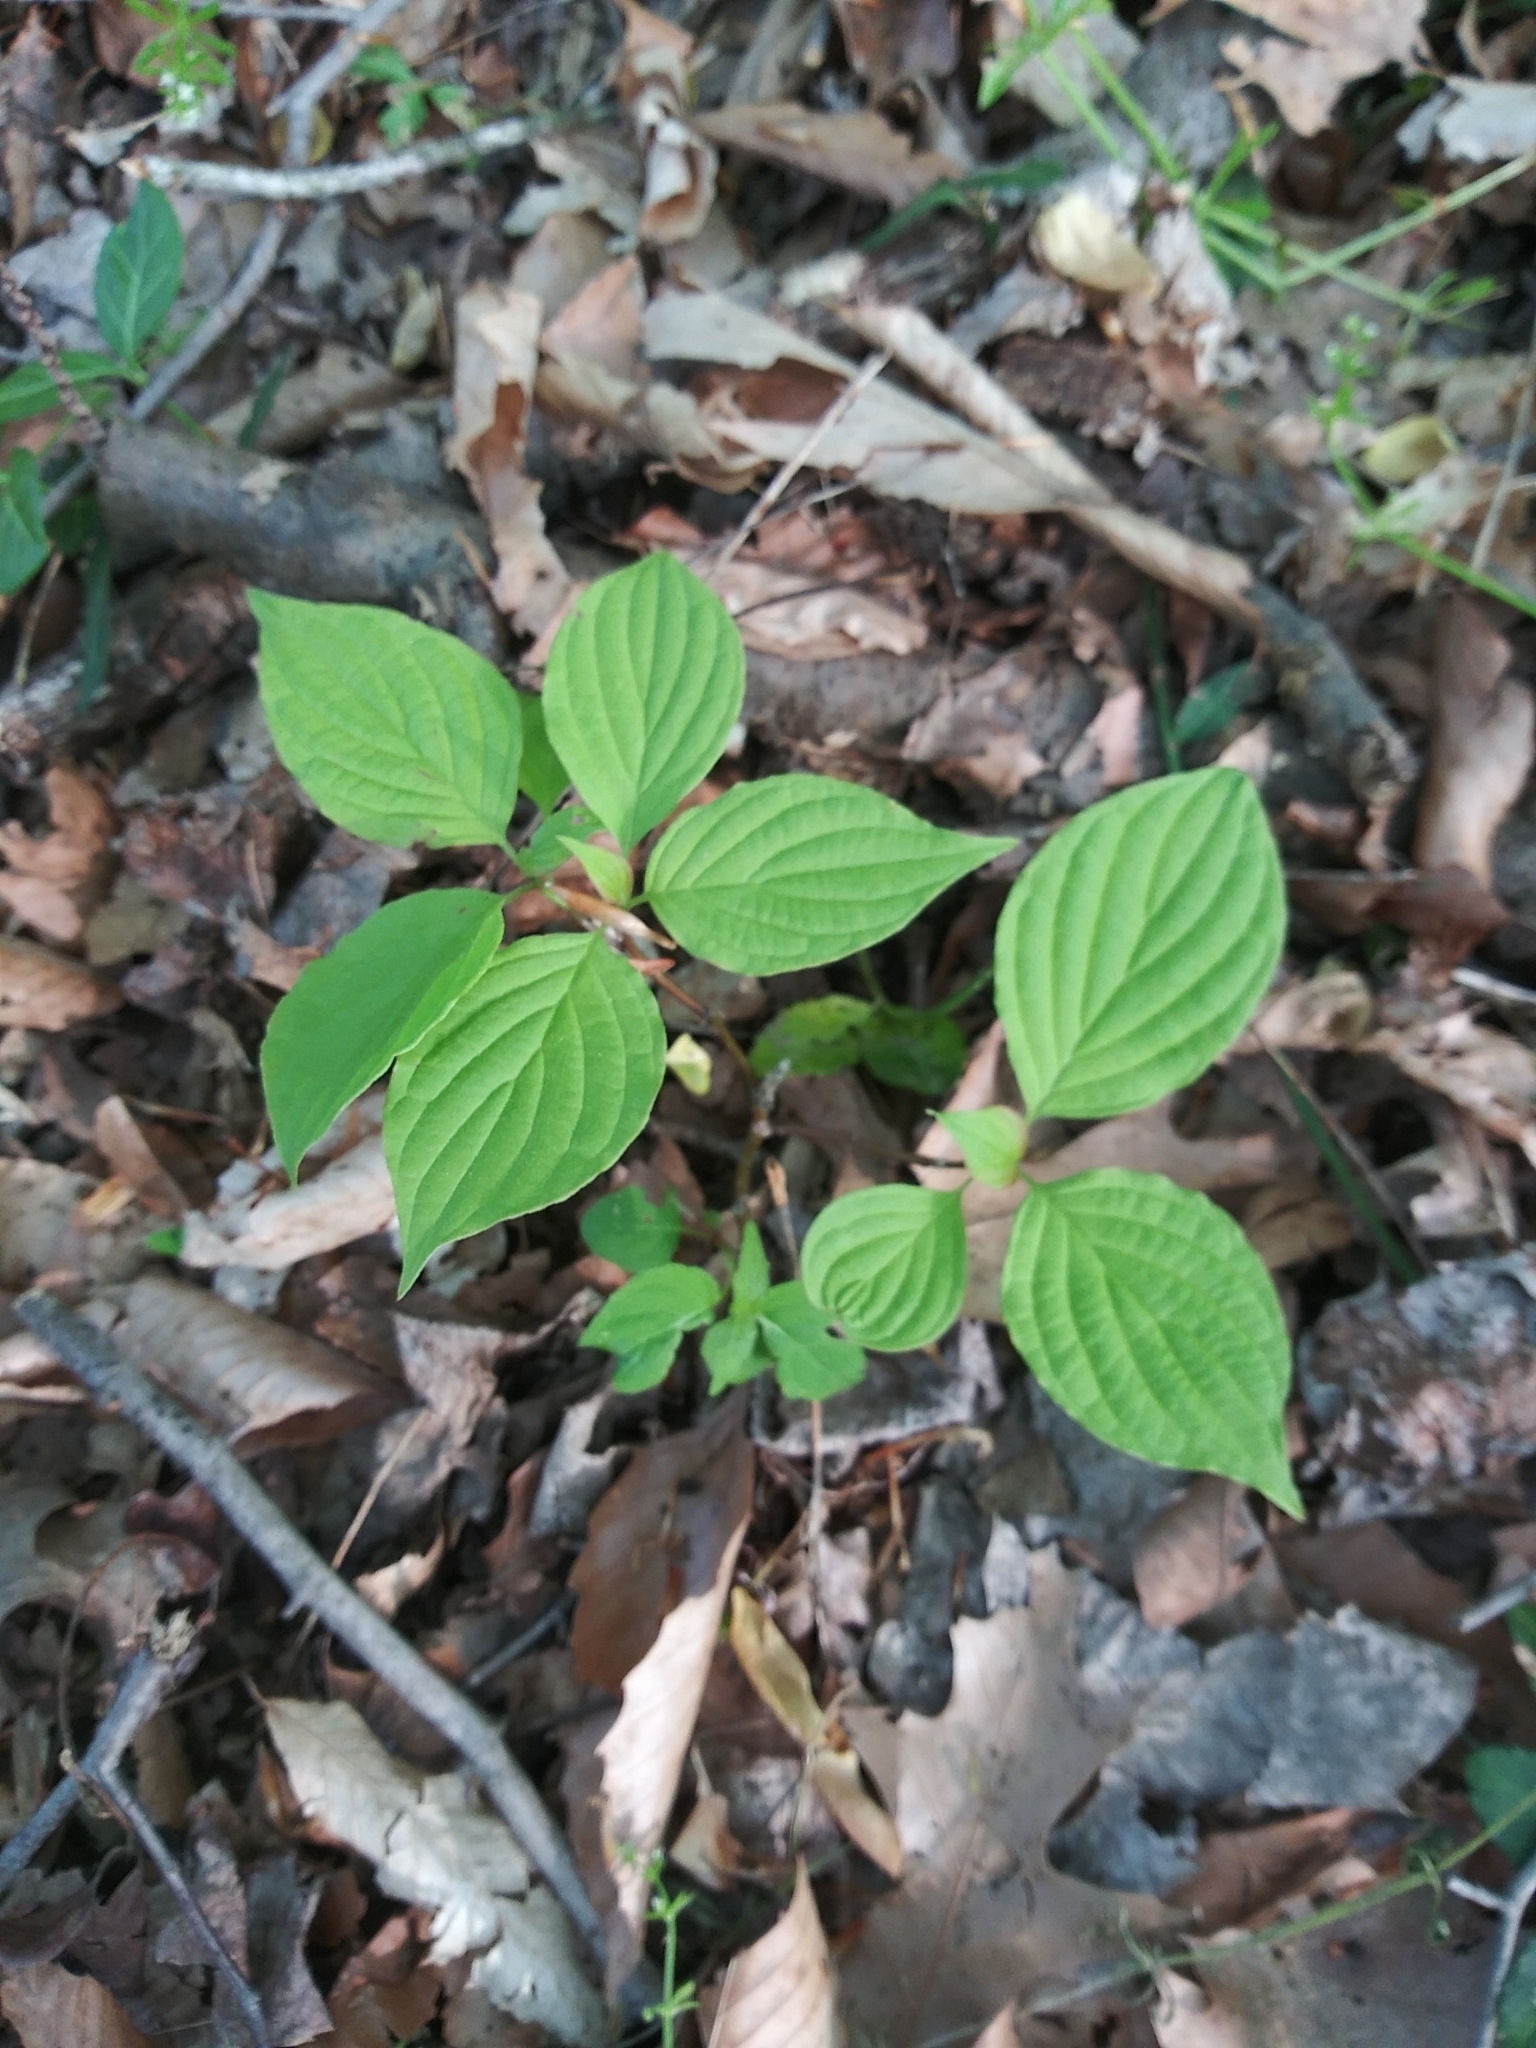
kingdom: Plantae
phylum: Tracheophyta
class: Magnoliopsida
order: Cornales
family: Cornaceae
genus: Cornus
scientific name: Cornus alternifolia
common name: Pagoda dogwood
